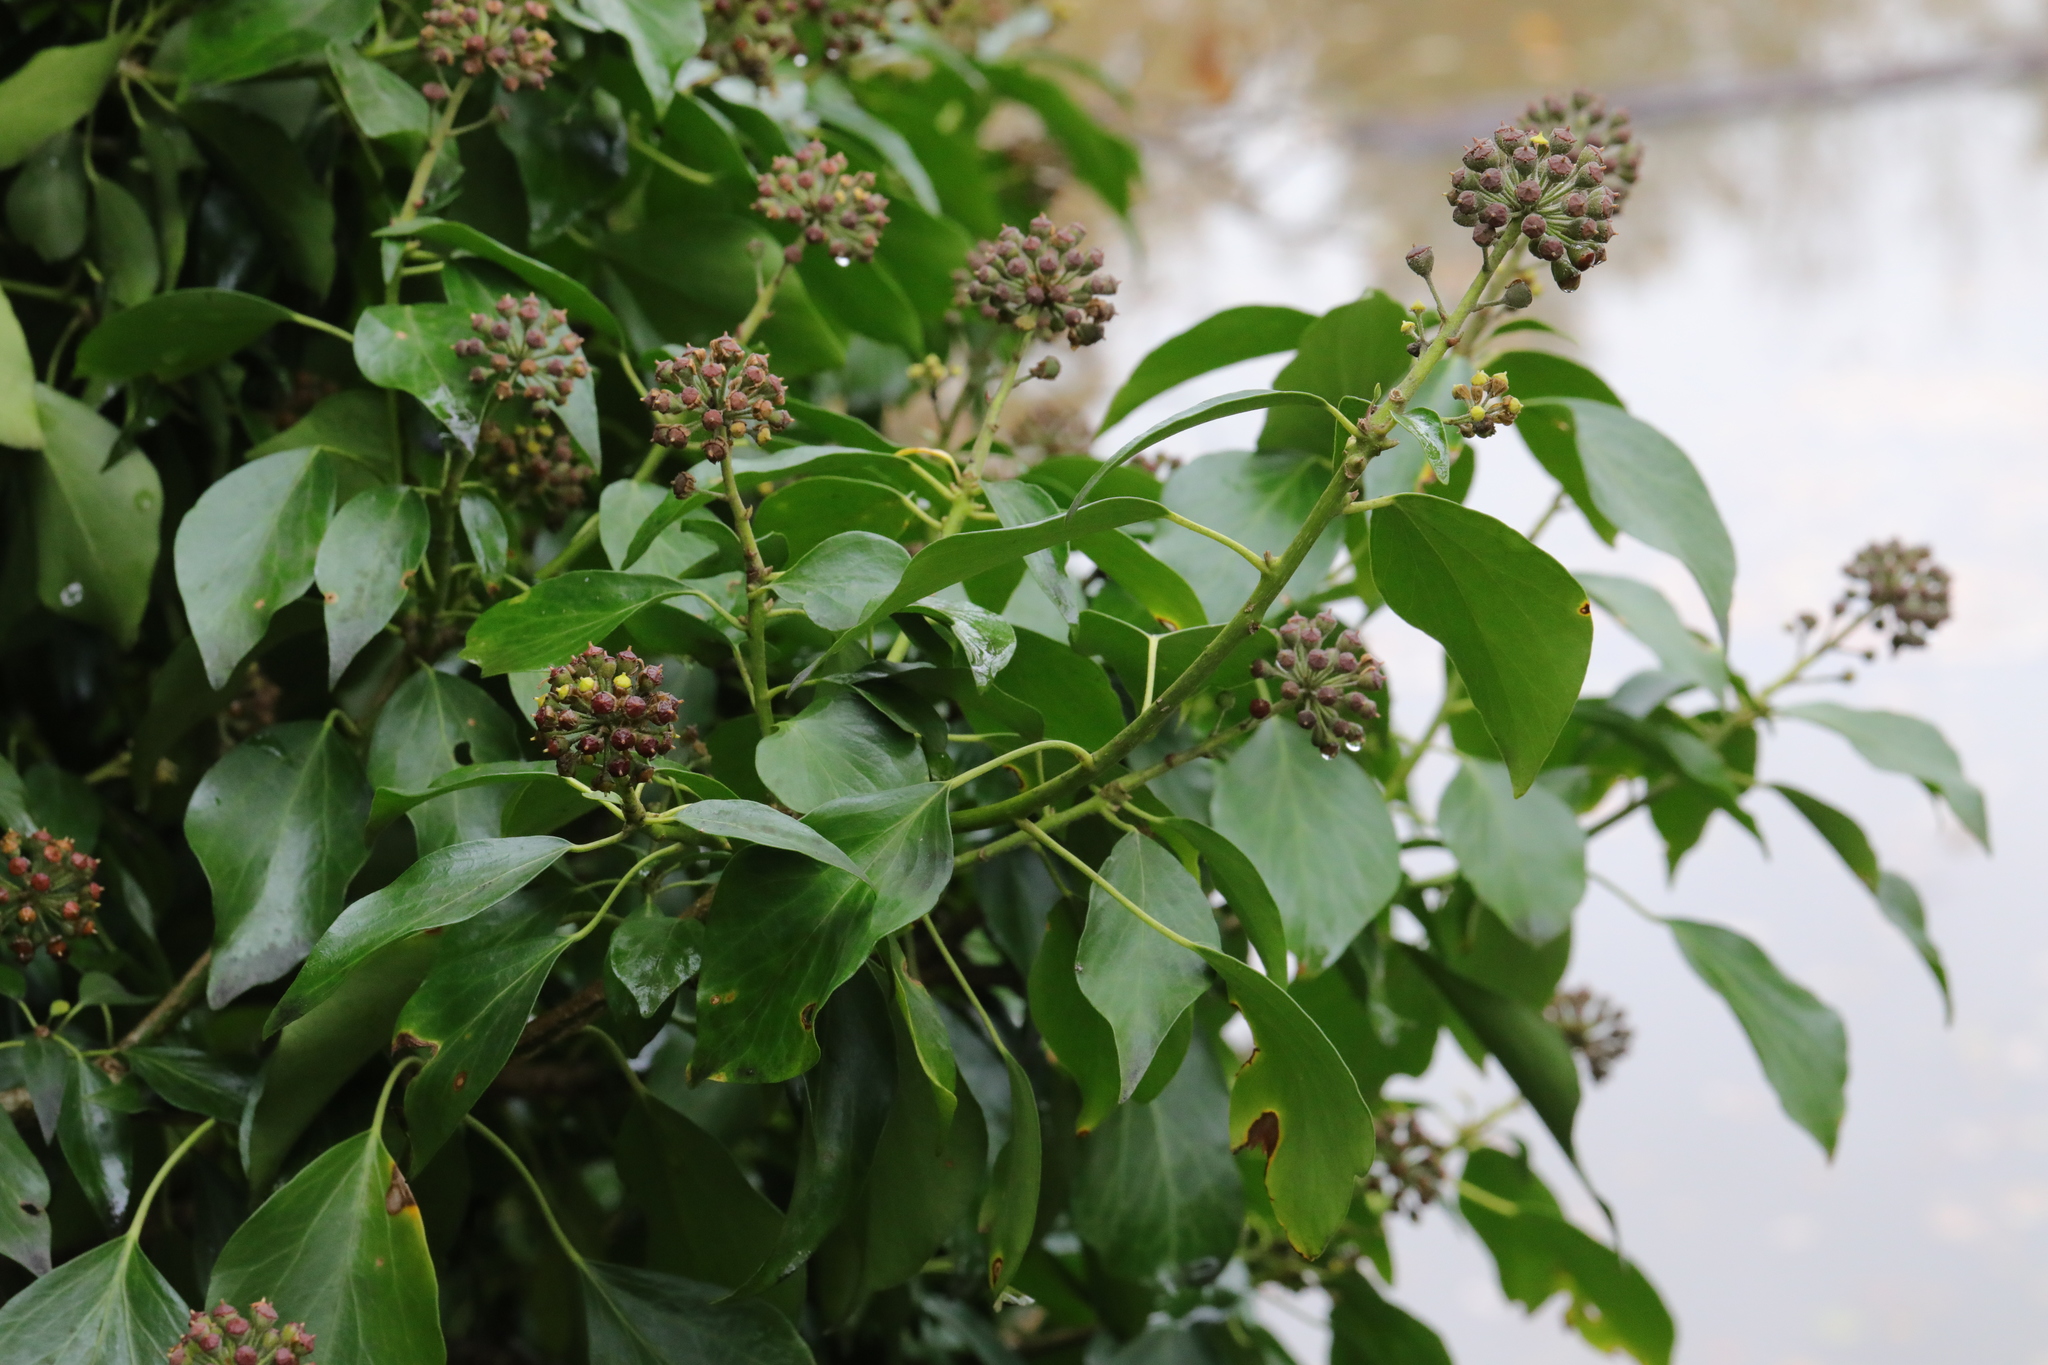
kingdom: Plantae
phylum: Tracheophyta
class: Magnoliopsida
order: Apiales
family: Araliaceae
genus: Hedera
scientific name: Hedera helix
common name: Ivy
